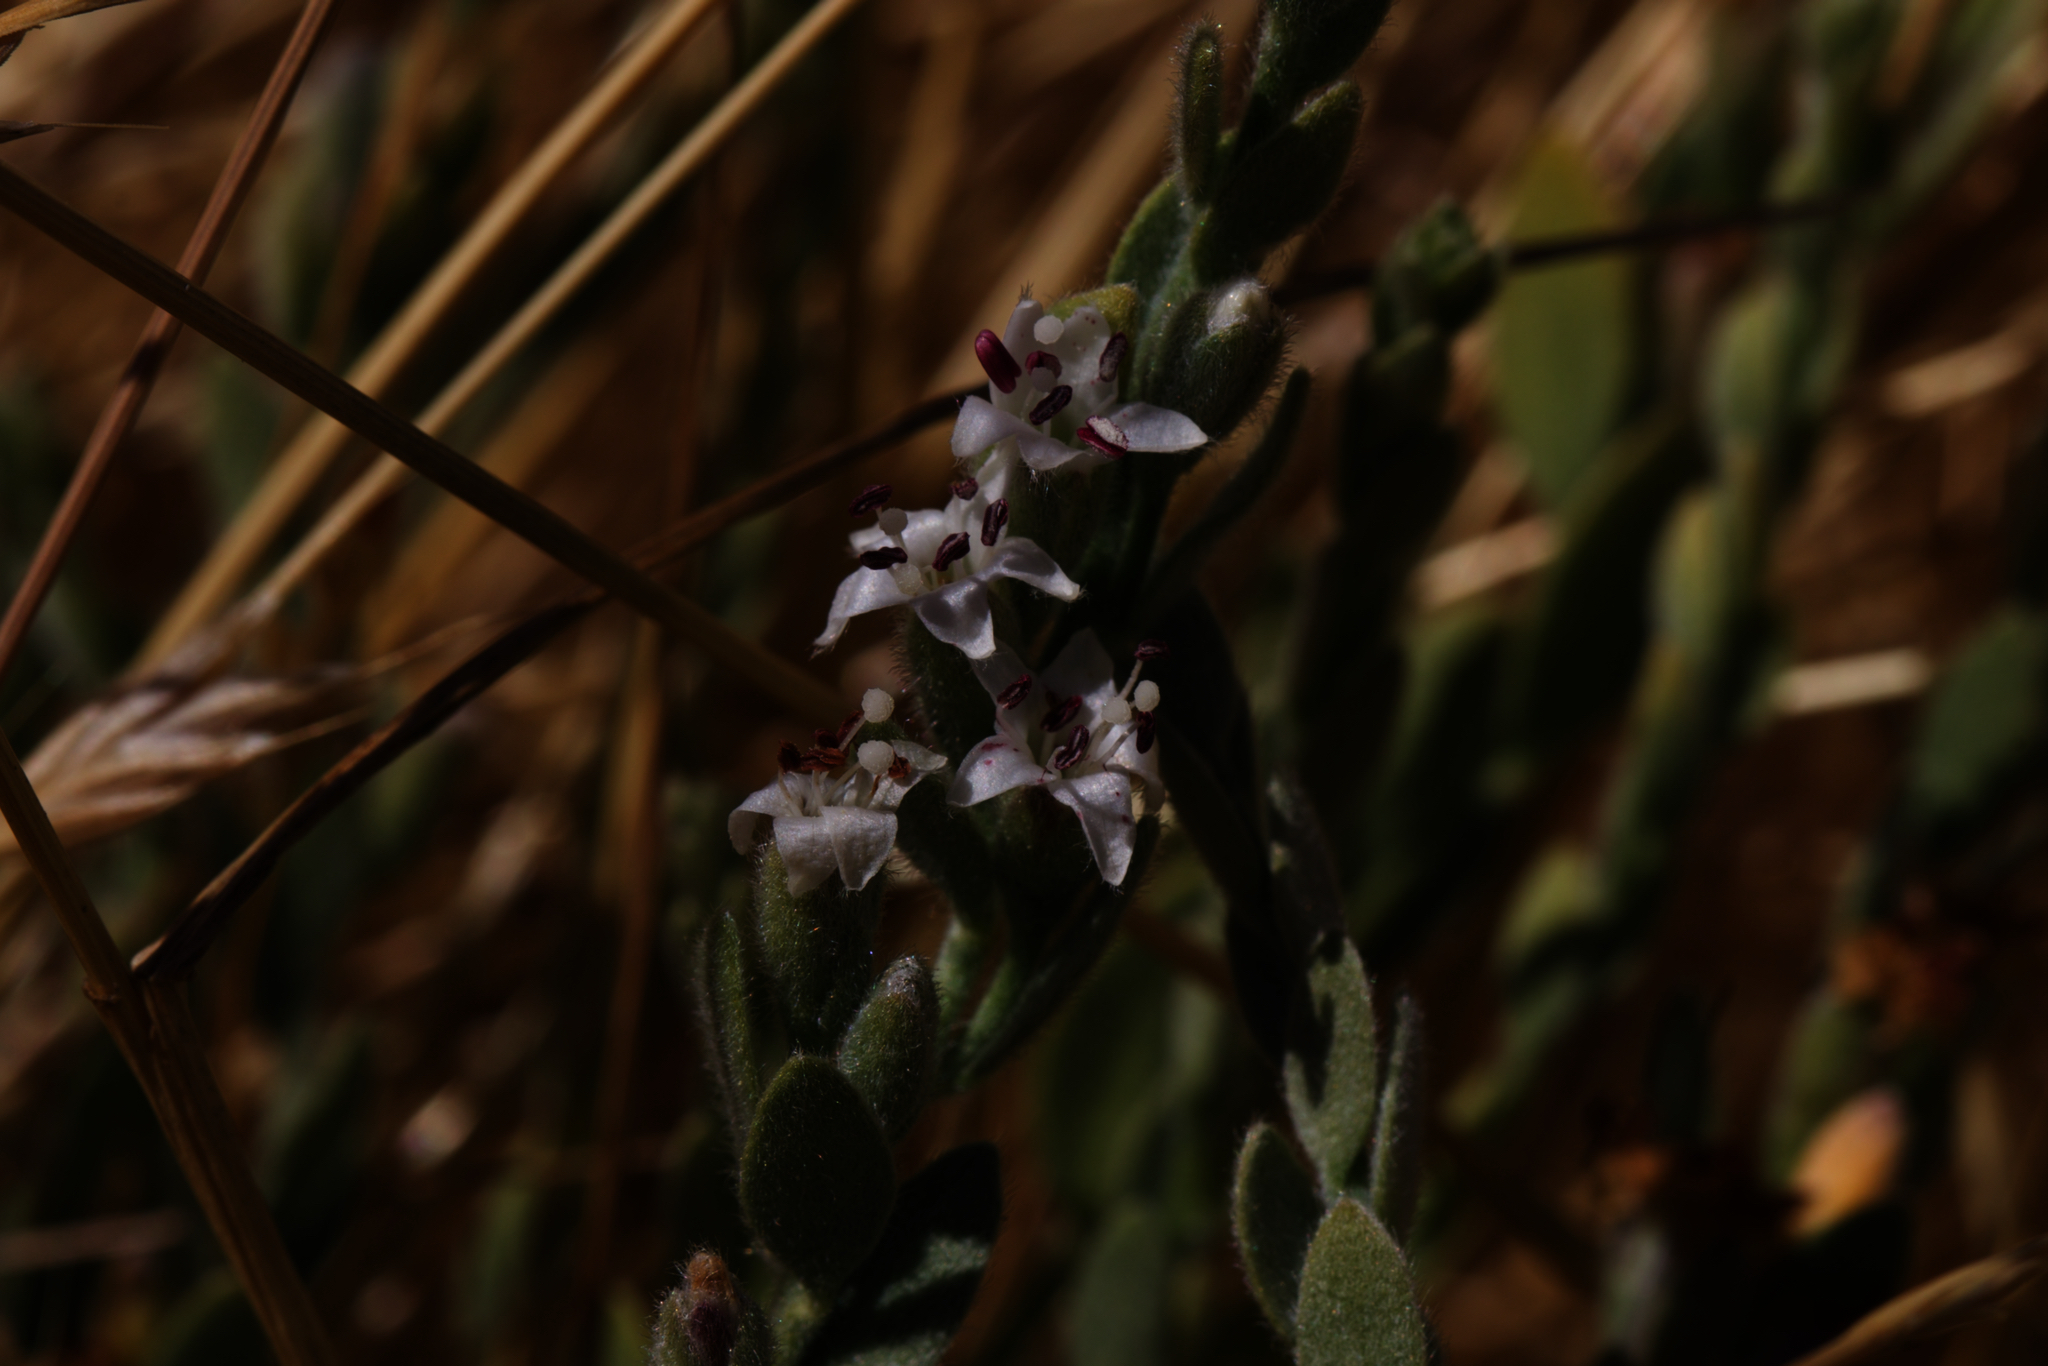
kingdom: Plantae
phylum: Tracheophyta
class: Magnoliopsida
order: Solanales
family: Convolvulaceae
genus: Cressa
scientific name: Cressa truxillensis
